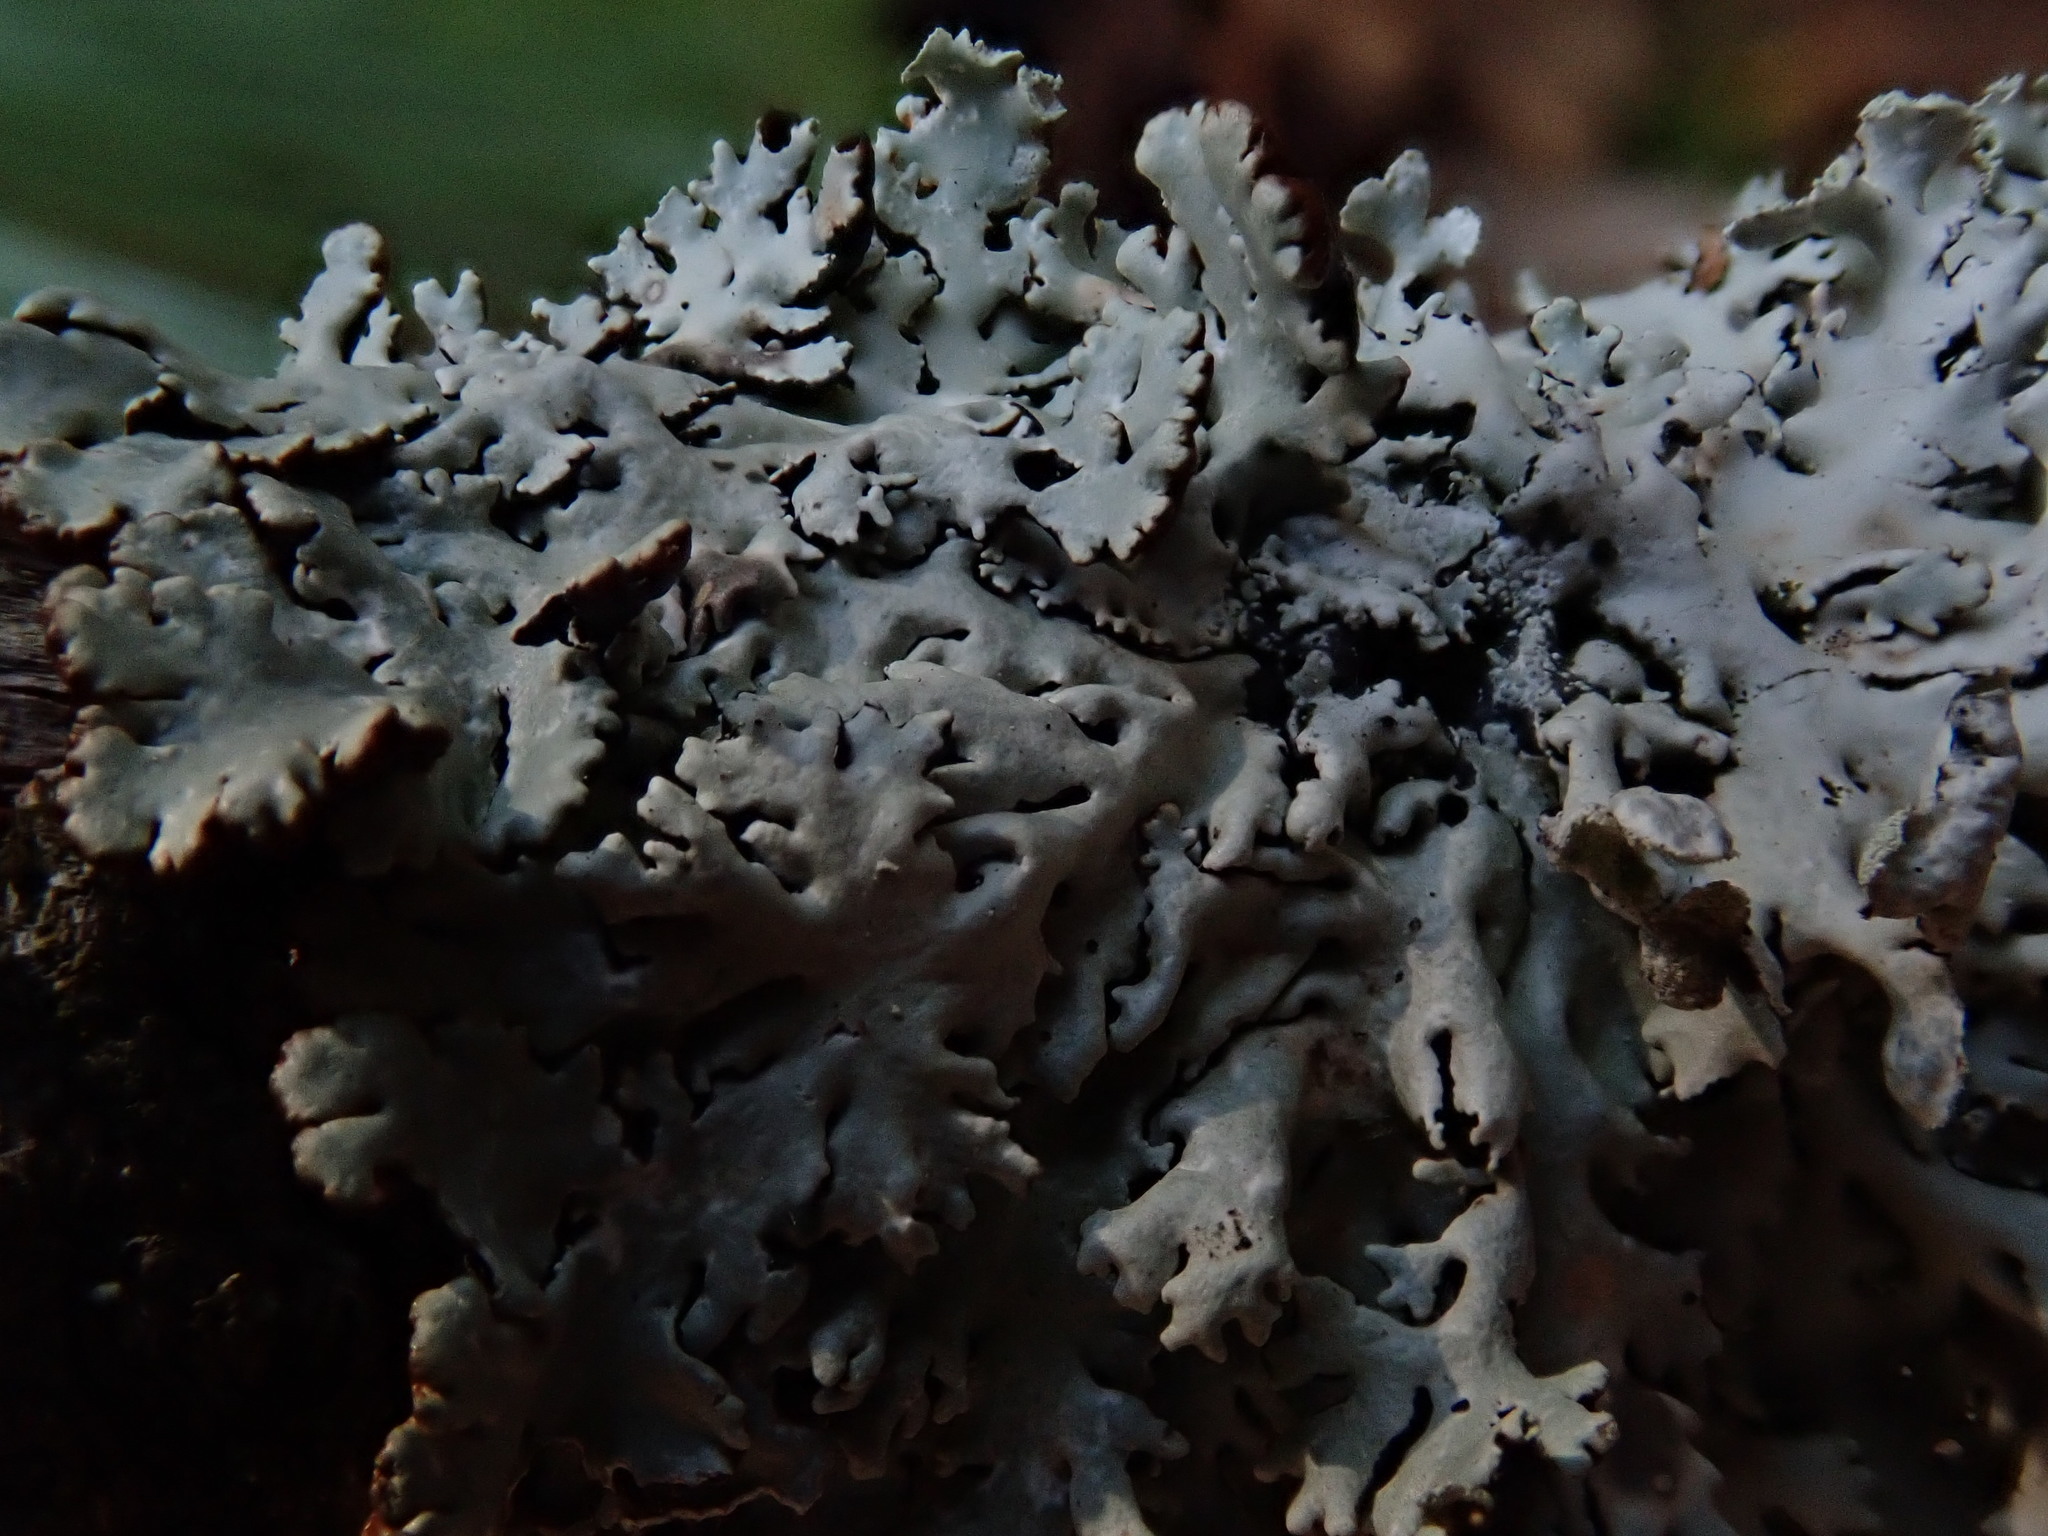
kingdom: Fungi
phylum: Ascomycota
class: Lecanoromycetes
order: Lecanorales
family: Parmeliaceae
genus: Hypogymnia
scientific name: Hypogymnia physodes
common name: Dark crottle
